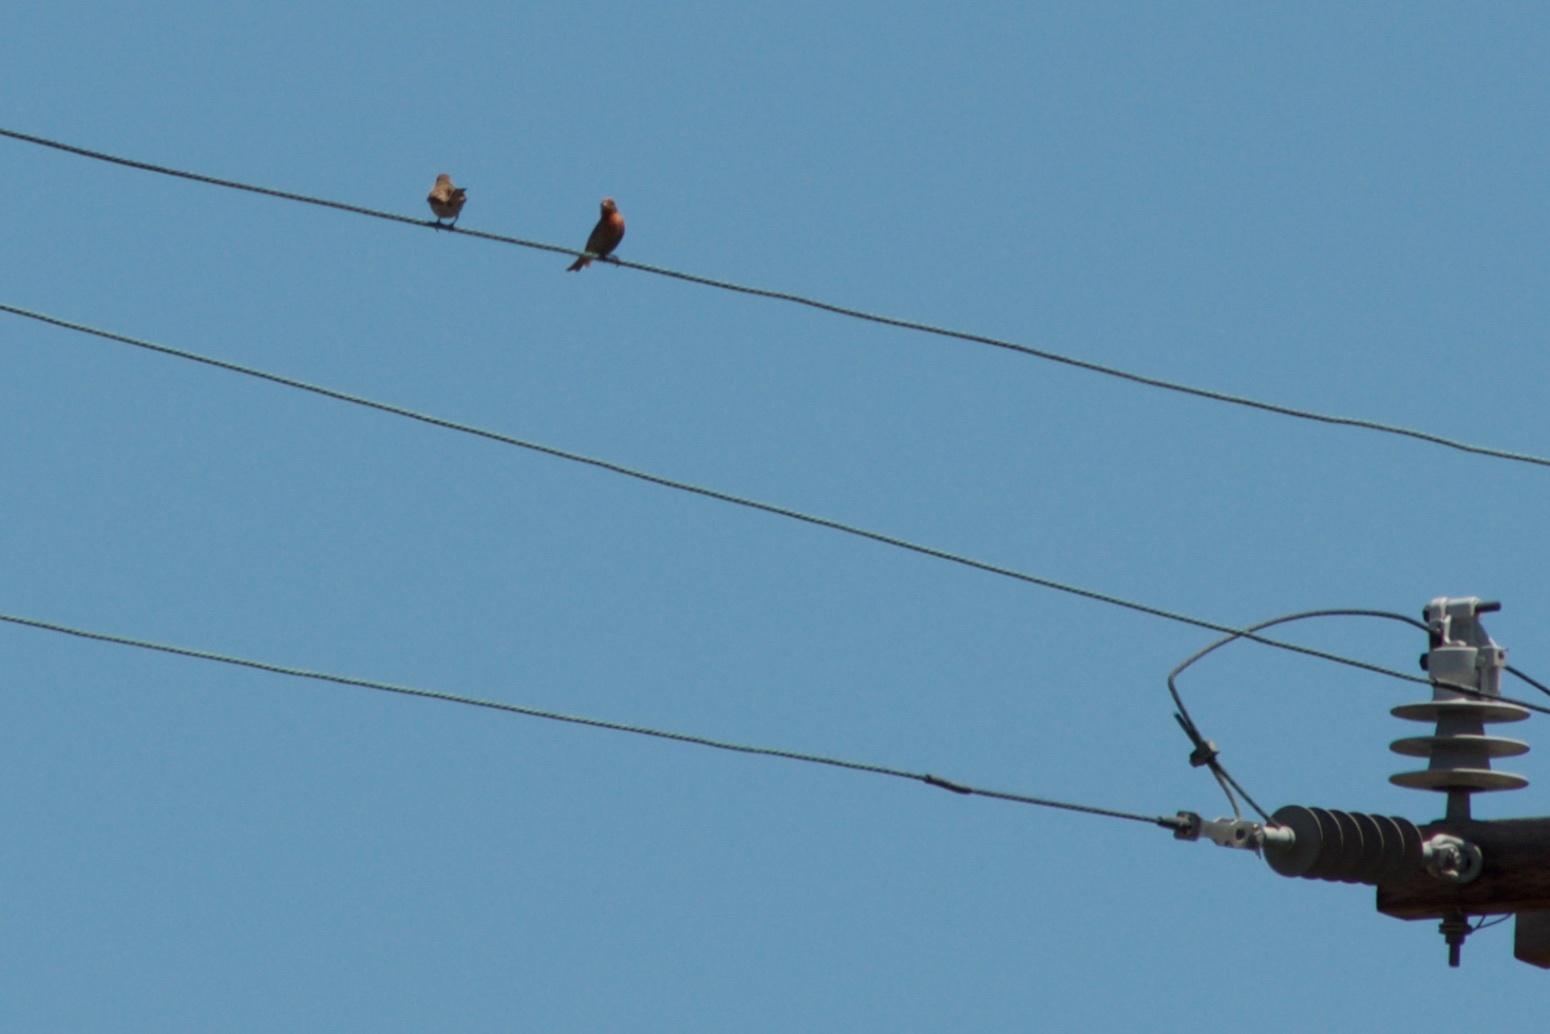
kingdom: Animalia
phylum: Chordata
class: Aves
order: Passeriformes
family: Fringillidae
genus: Haemorhous
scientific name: Haemorhous mexicanus
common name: House finch
